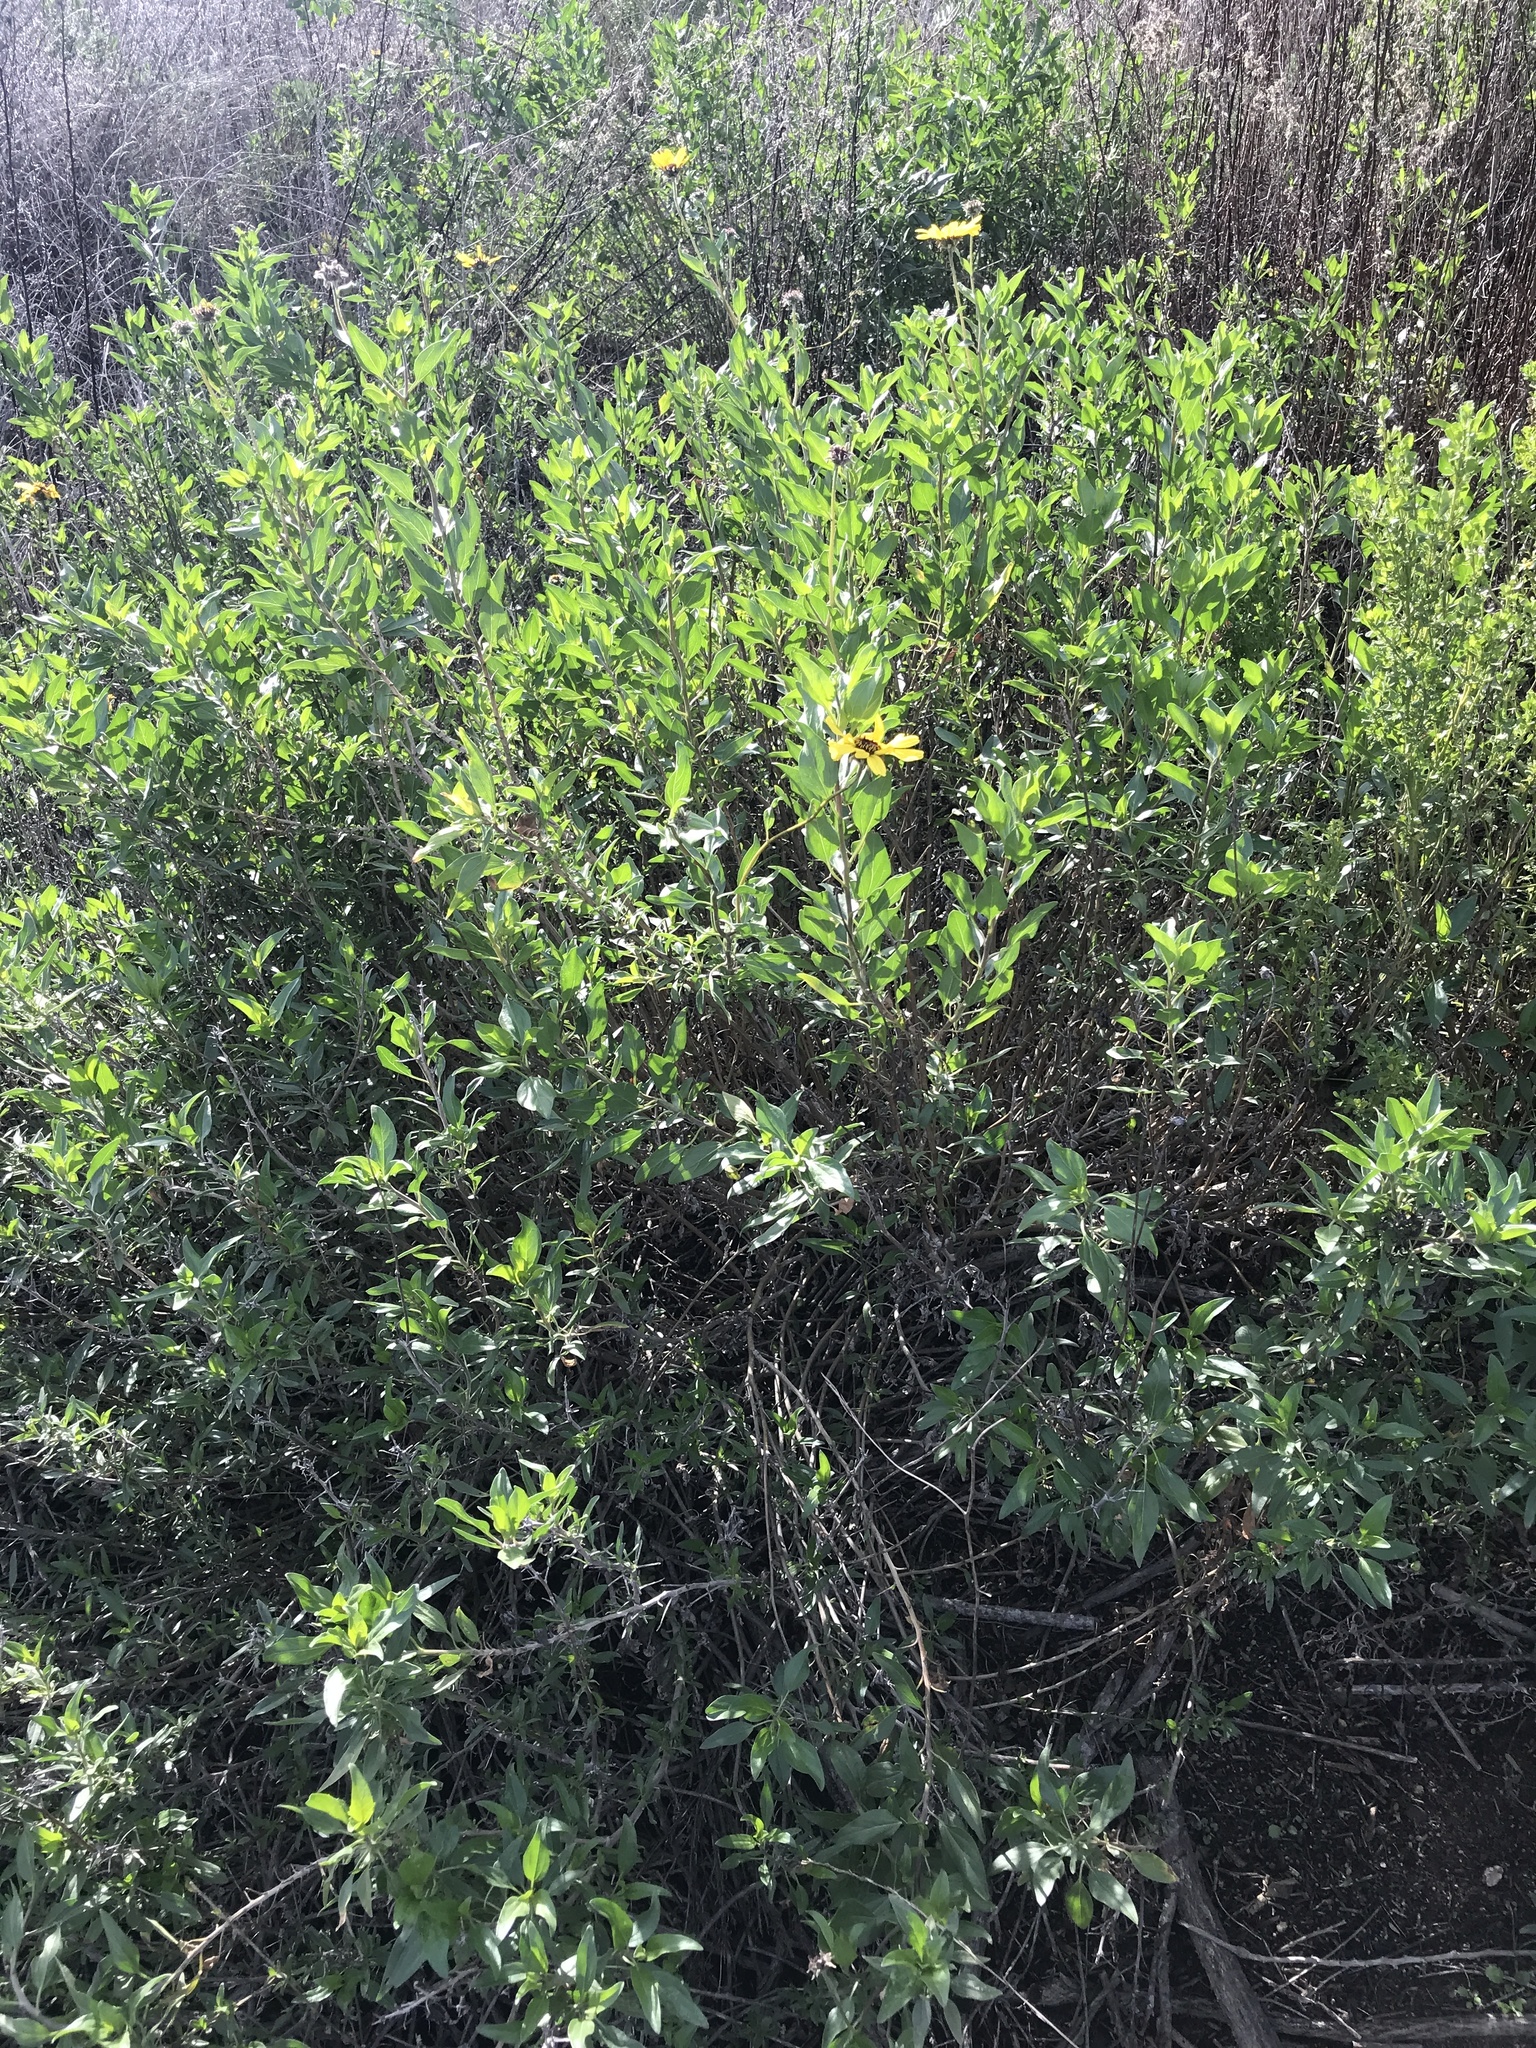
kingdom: Plantae
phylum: Tracheophyta
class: Magnoliopsida
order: Asterales
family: Asteraceae
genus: Encelia
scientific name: Encelia californica
